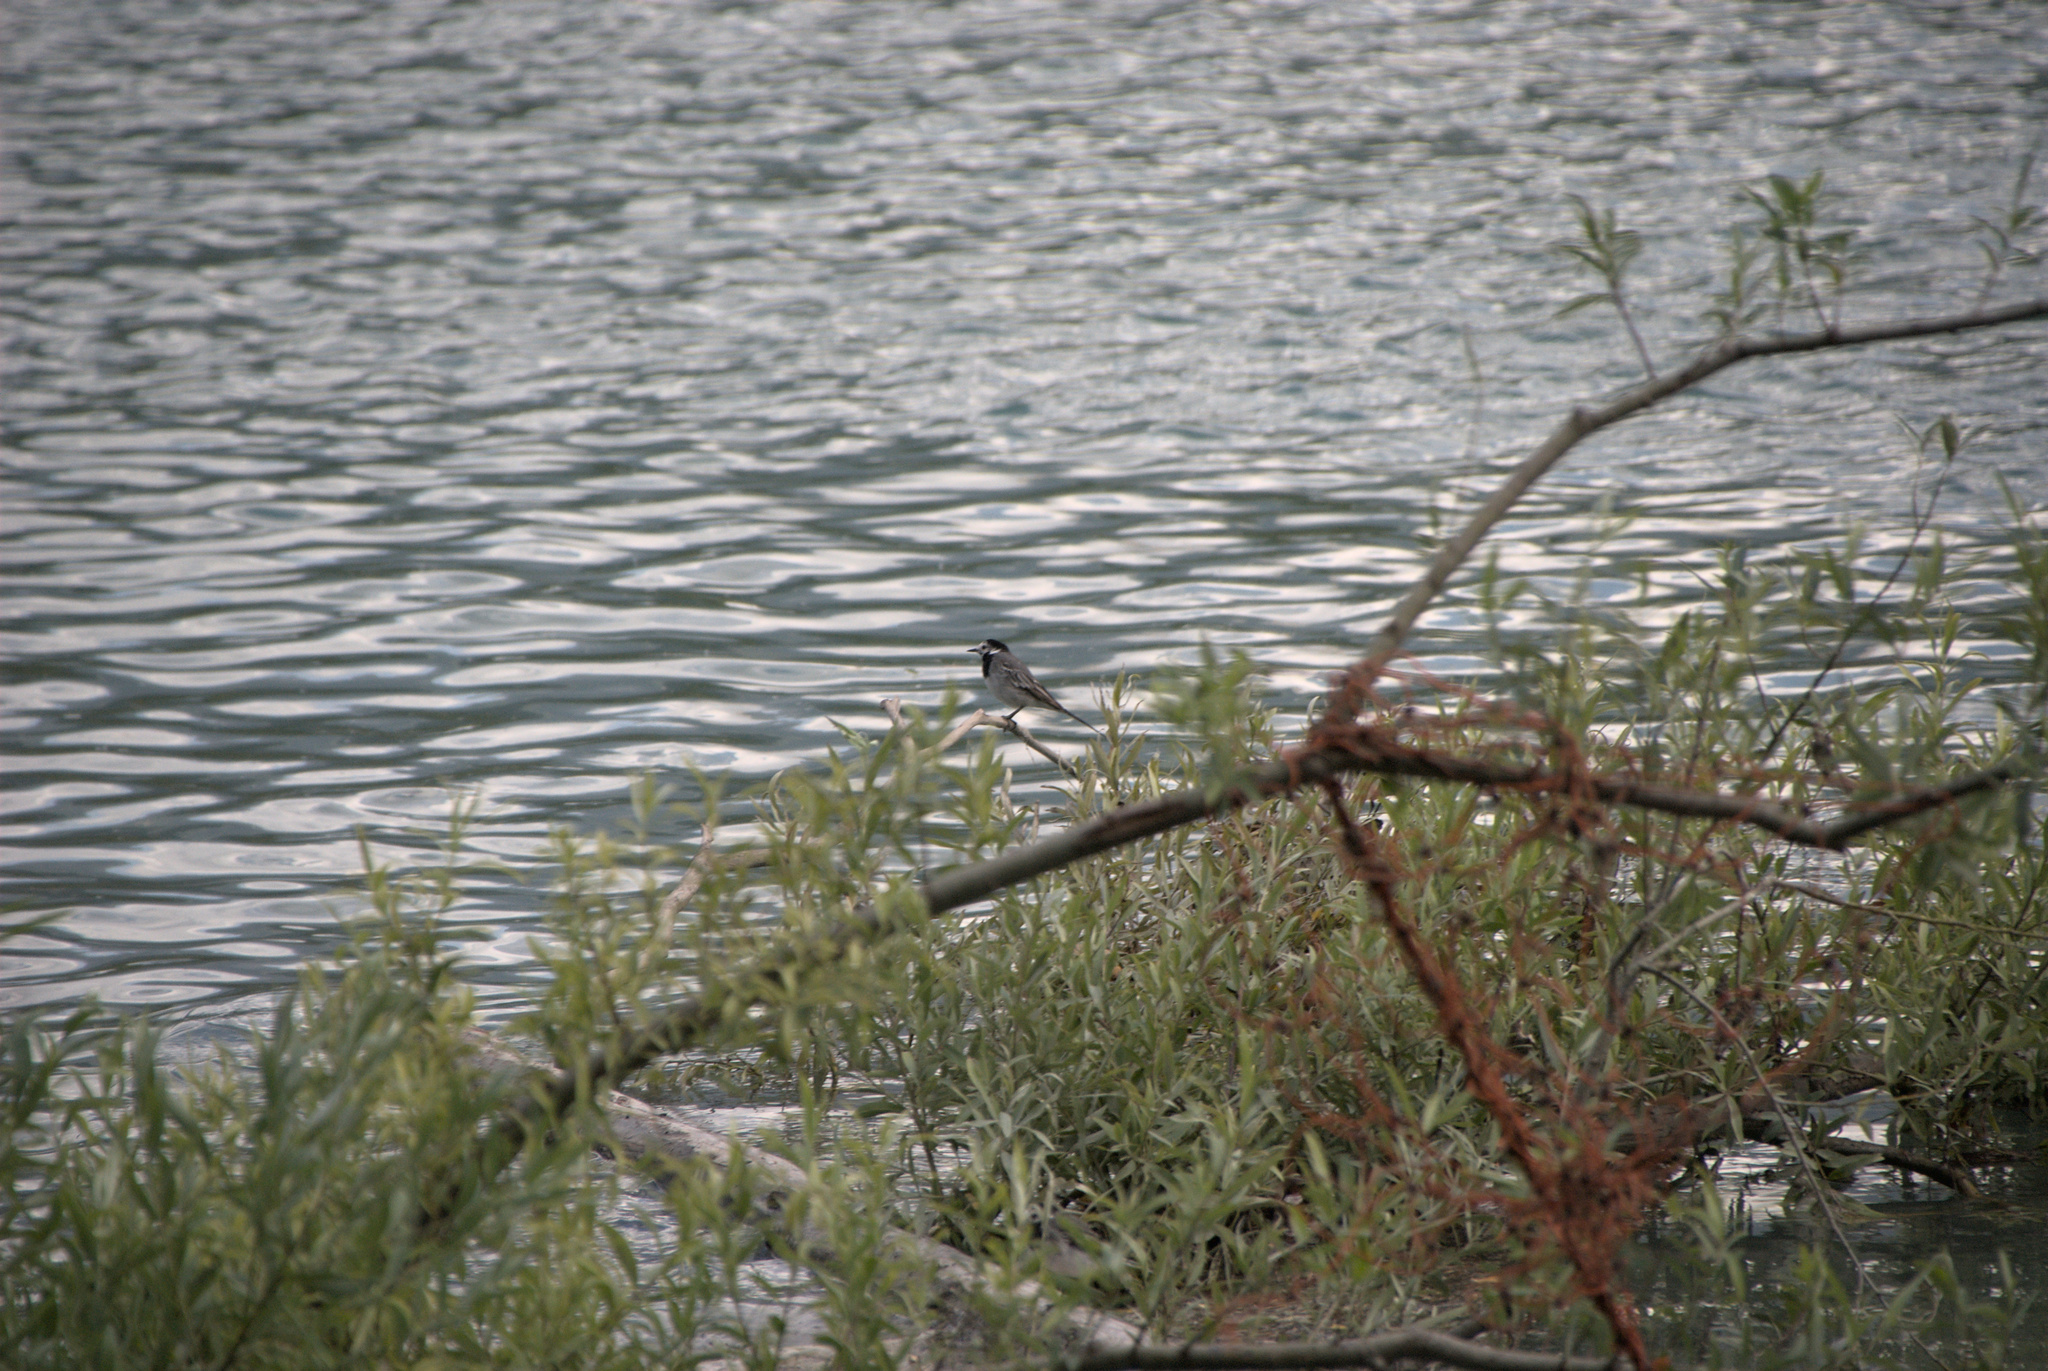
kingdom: Animalia
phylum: Chordata
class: Aves
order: Passeriformes
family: Motacillidae
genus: Motacilla
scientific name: Motacilla alba
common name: White wagtail
